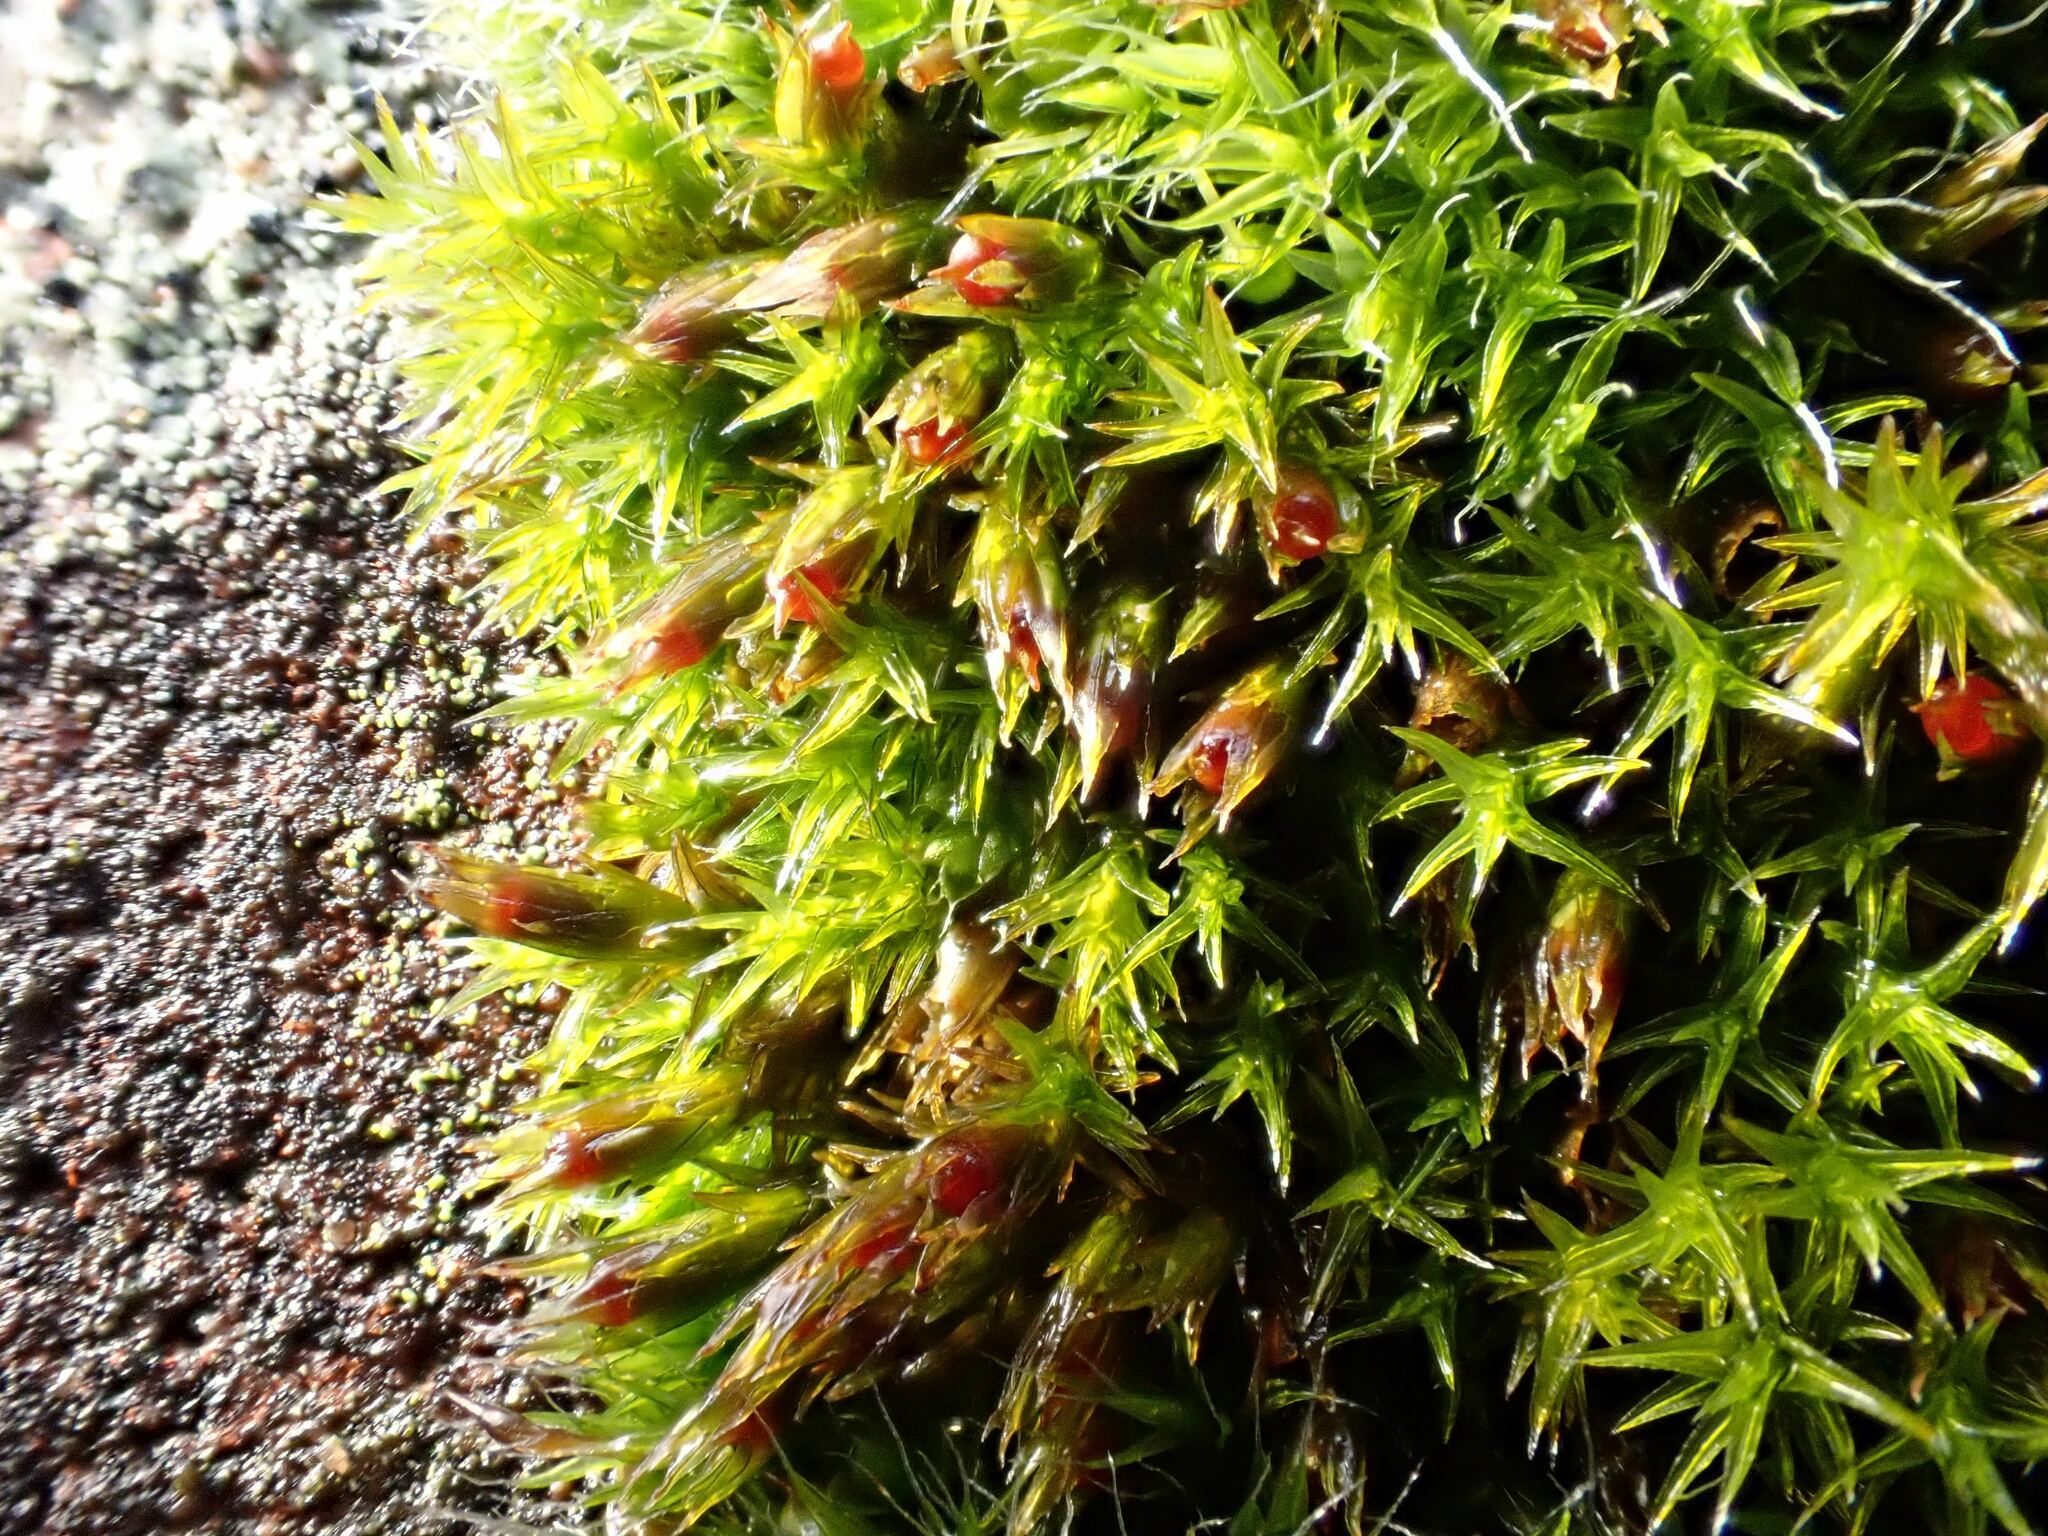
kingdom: Plantae
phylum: Bryophyta
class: Bryopsida
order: Grimmiales
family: Grimmiaceae
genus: Schistidium
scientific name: Schistidium crassipilum
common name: Thickpoint bloom moss
